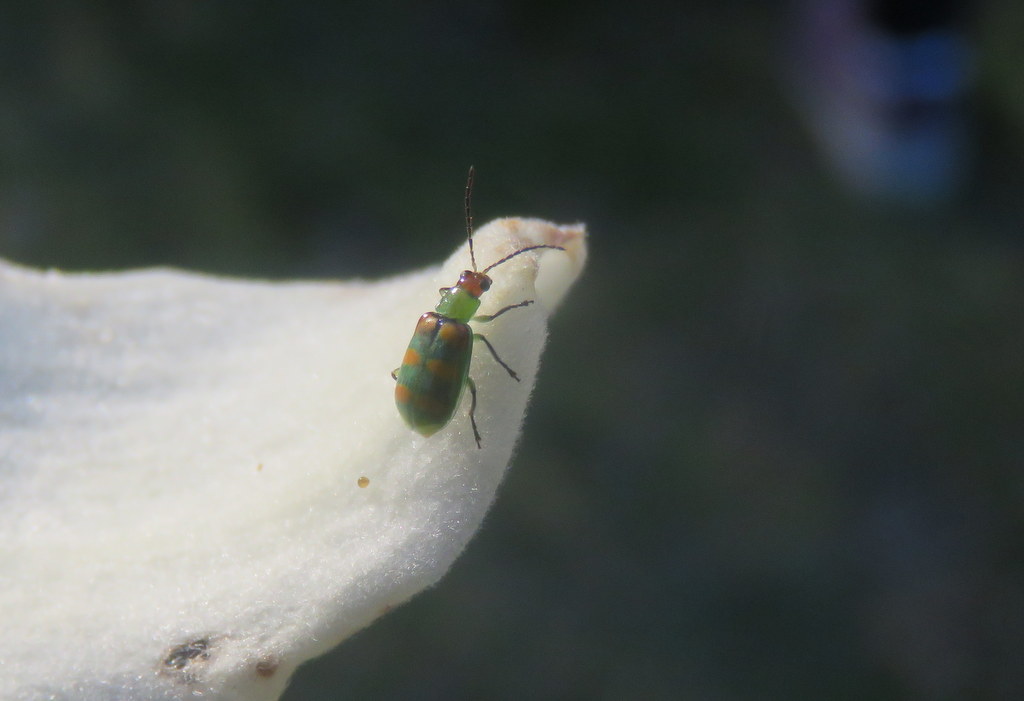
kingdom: Animalia
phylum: Arthropoda
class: Insecta
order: Coleoptera
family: Chrysomelidae
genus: Diabrotica
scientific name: Diabrotica speciosa
